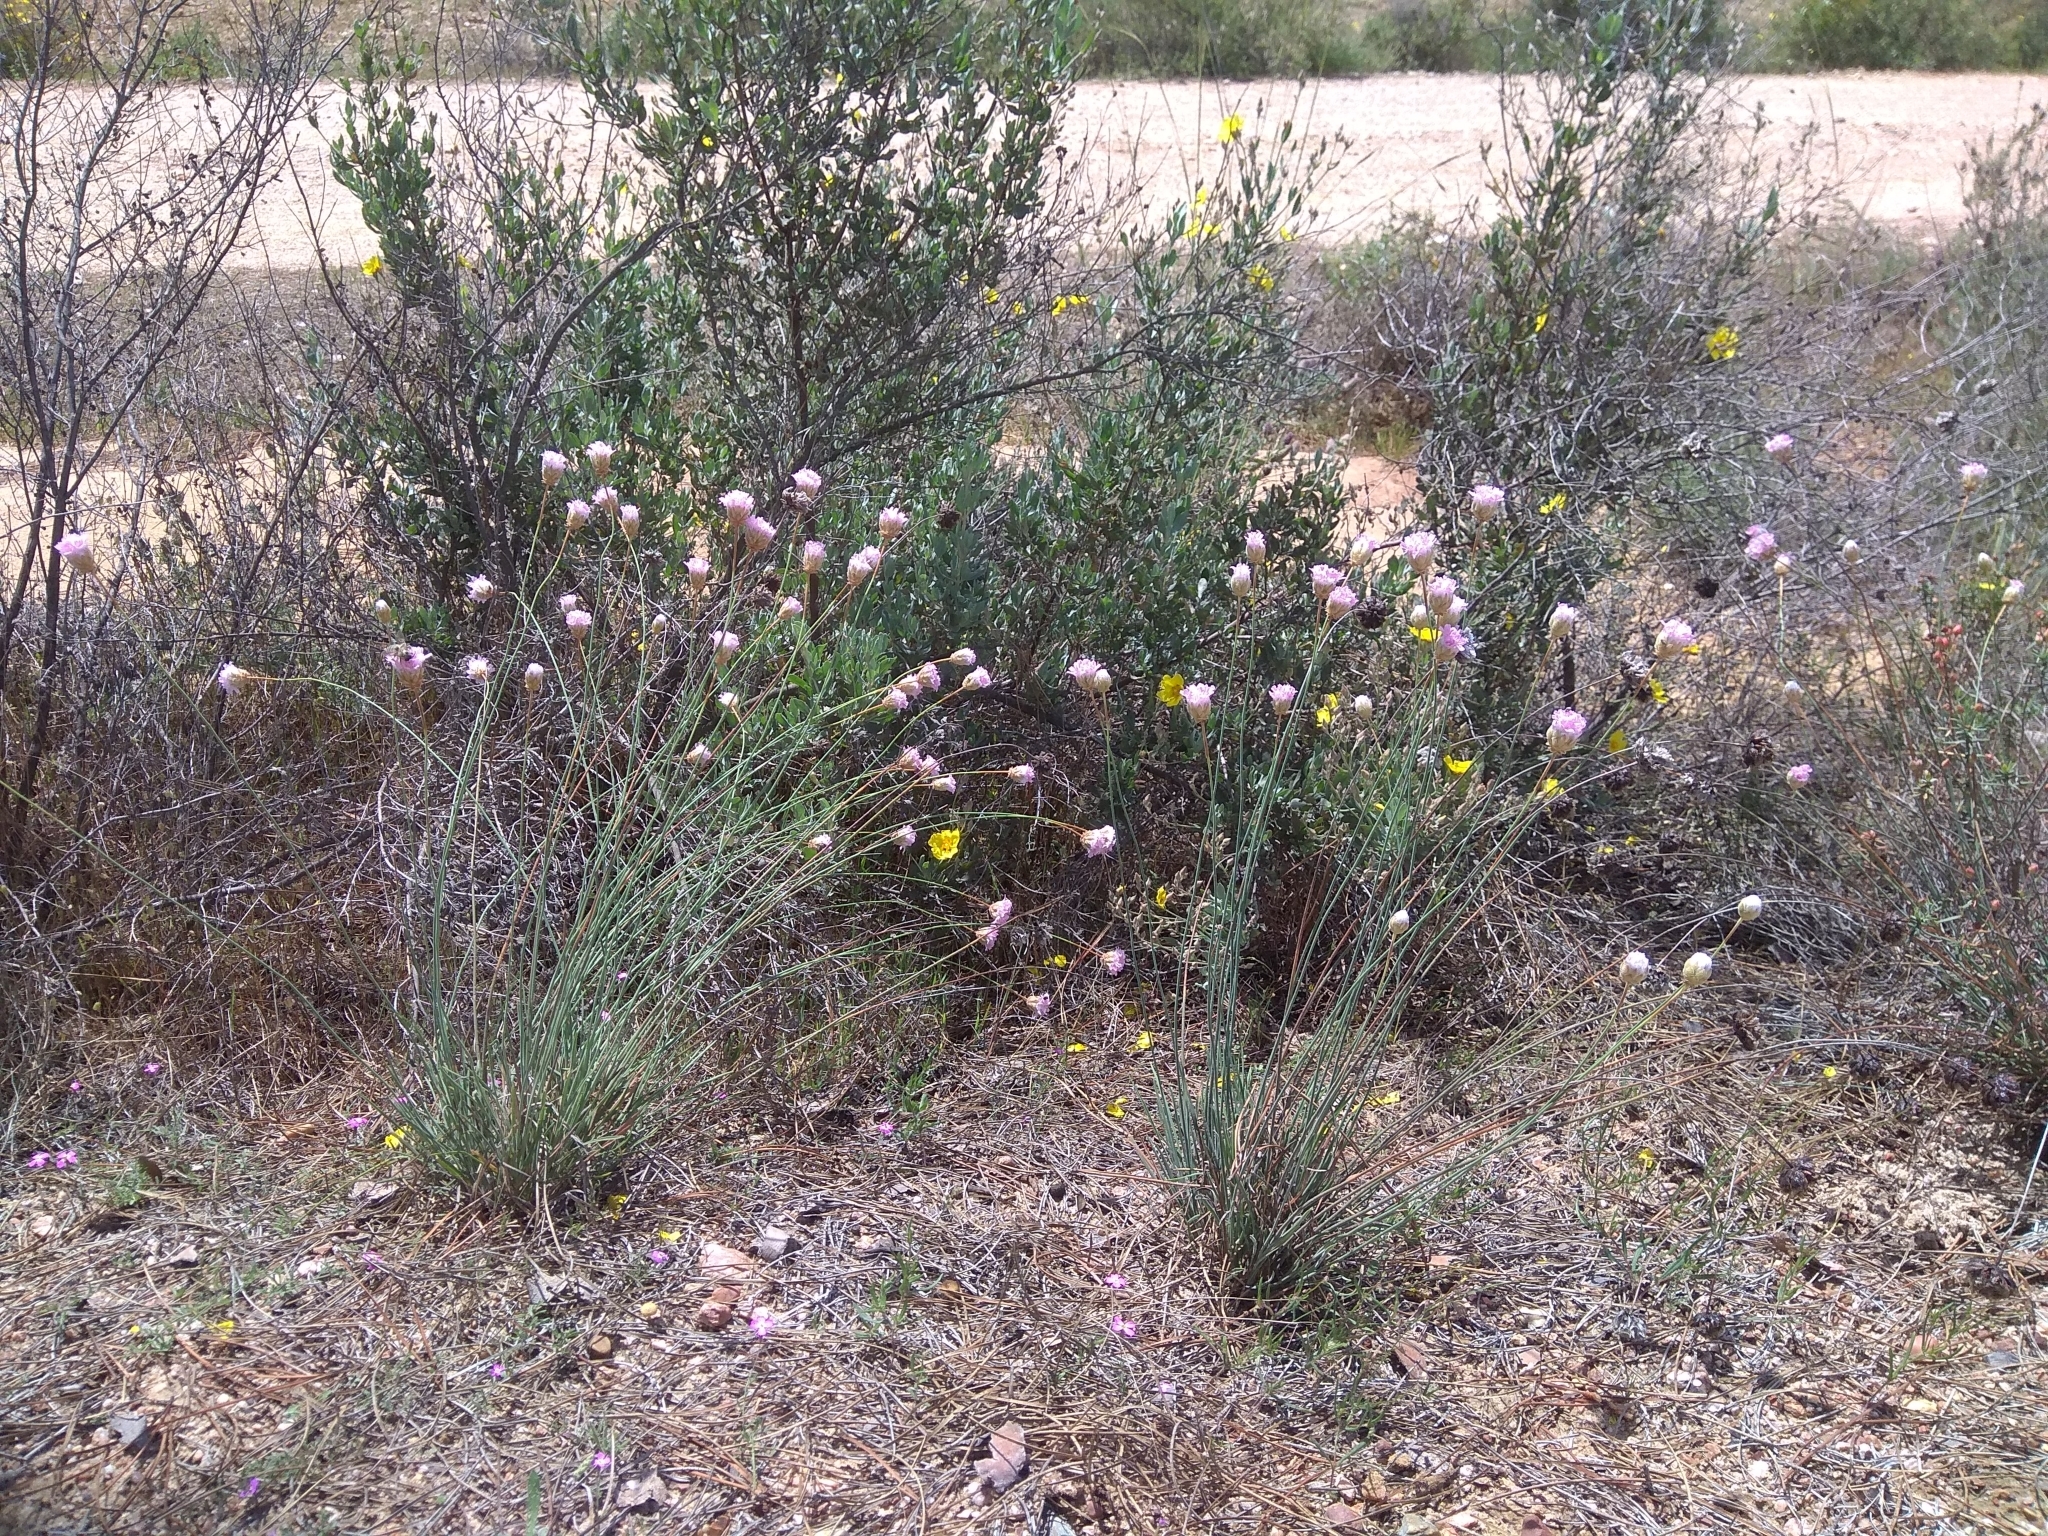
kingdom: Plantae
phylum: Tracheophyta
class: Magnoliopsida
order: Caryophyllales
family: Plumbaginaceae
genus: Armeria
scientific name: Armeria hispalensis
